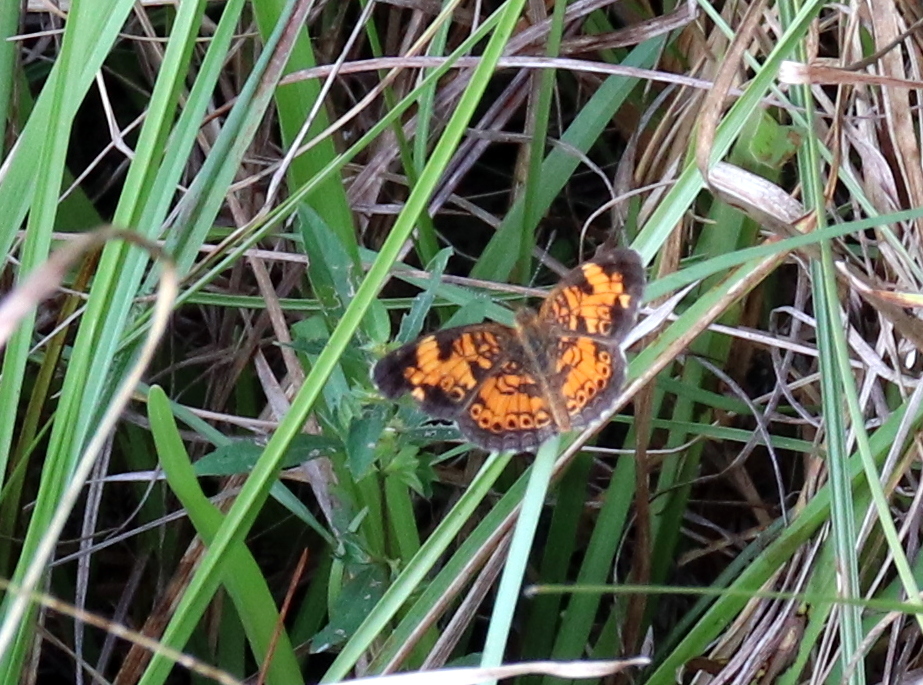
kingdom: Animalia
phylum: Arthropoda
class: Insecta
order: Lepidoptera
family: Nymphalidae
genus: Phyciodes
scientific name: Phyciodes tharos
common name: Pearl crescent
